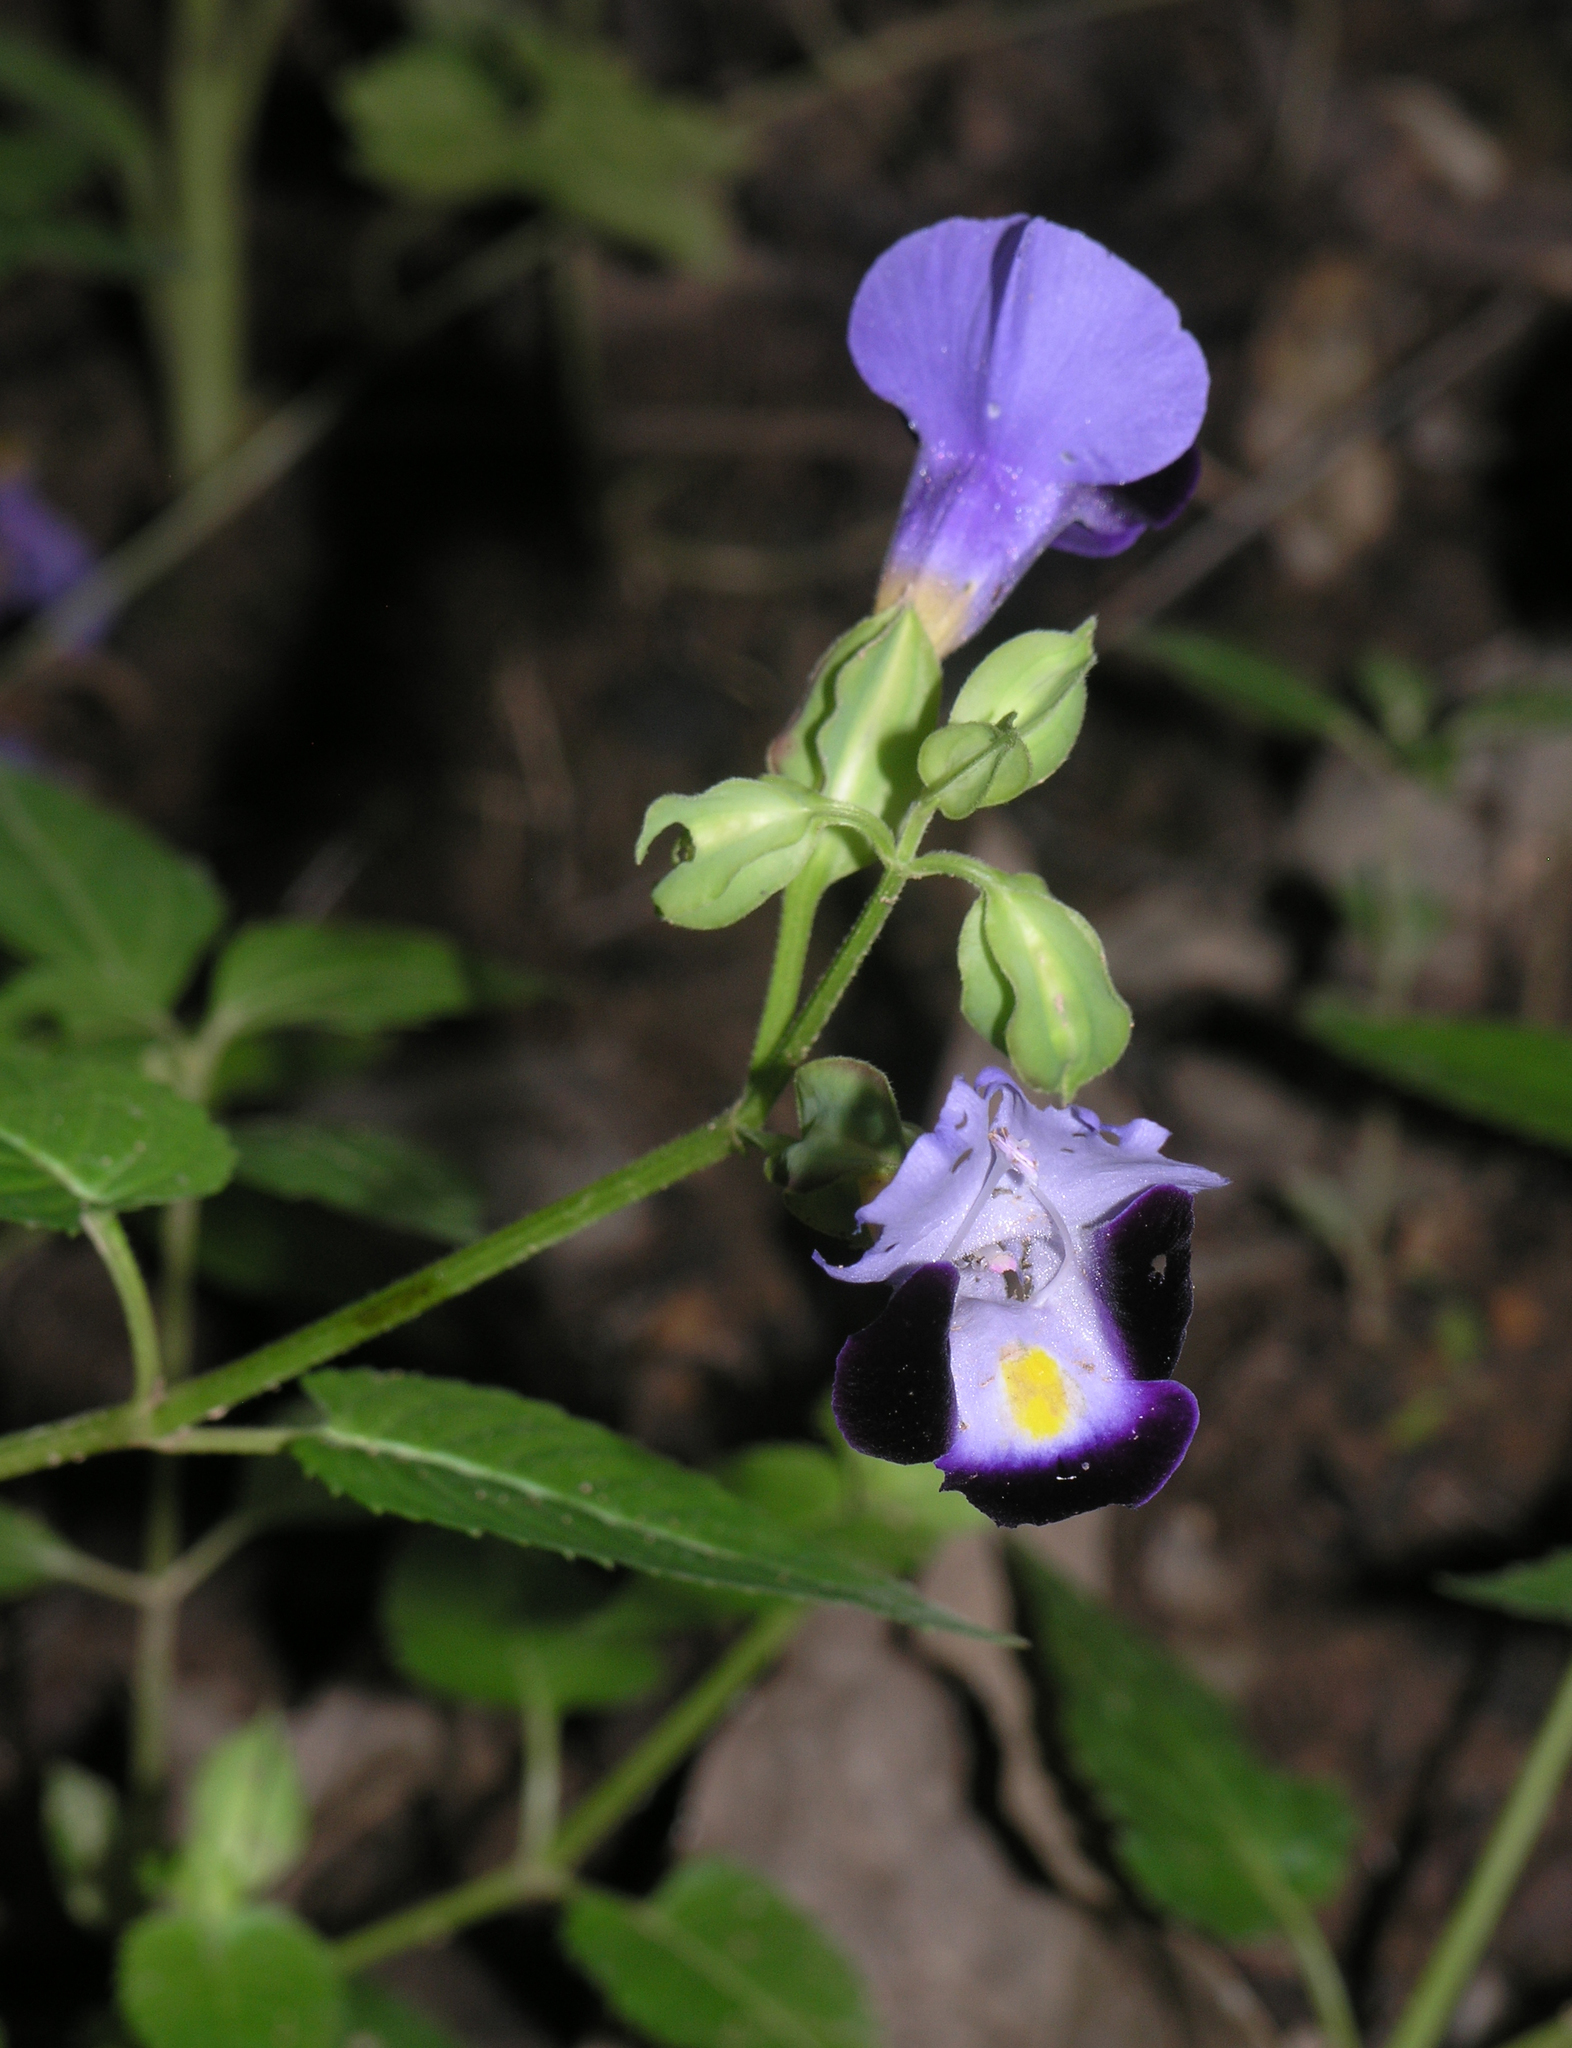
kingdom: Plantae
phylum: Tracheophyta
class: Magnoliopsida
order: Lamiales
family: Linderniaceae
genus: Torenia
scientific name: Torenia fournieri
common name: Bluewings
